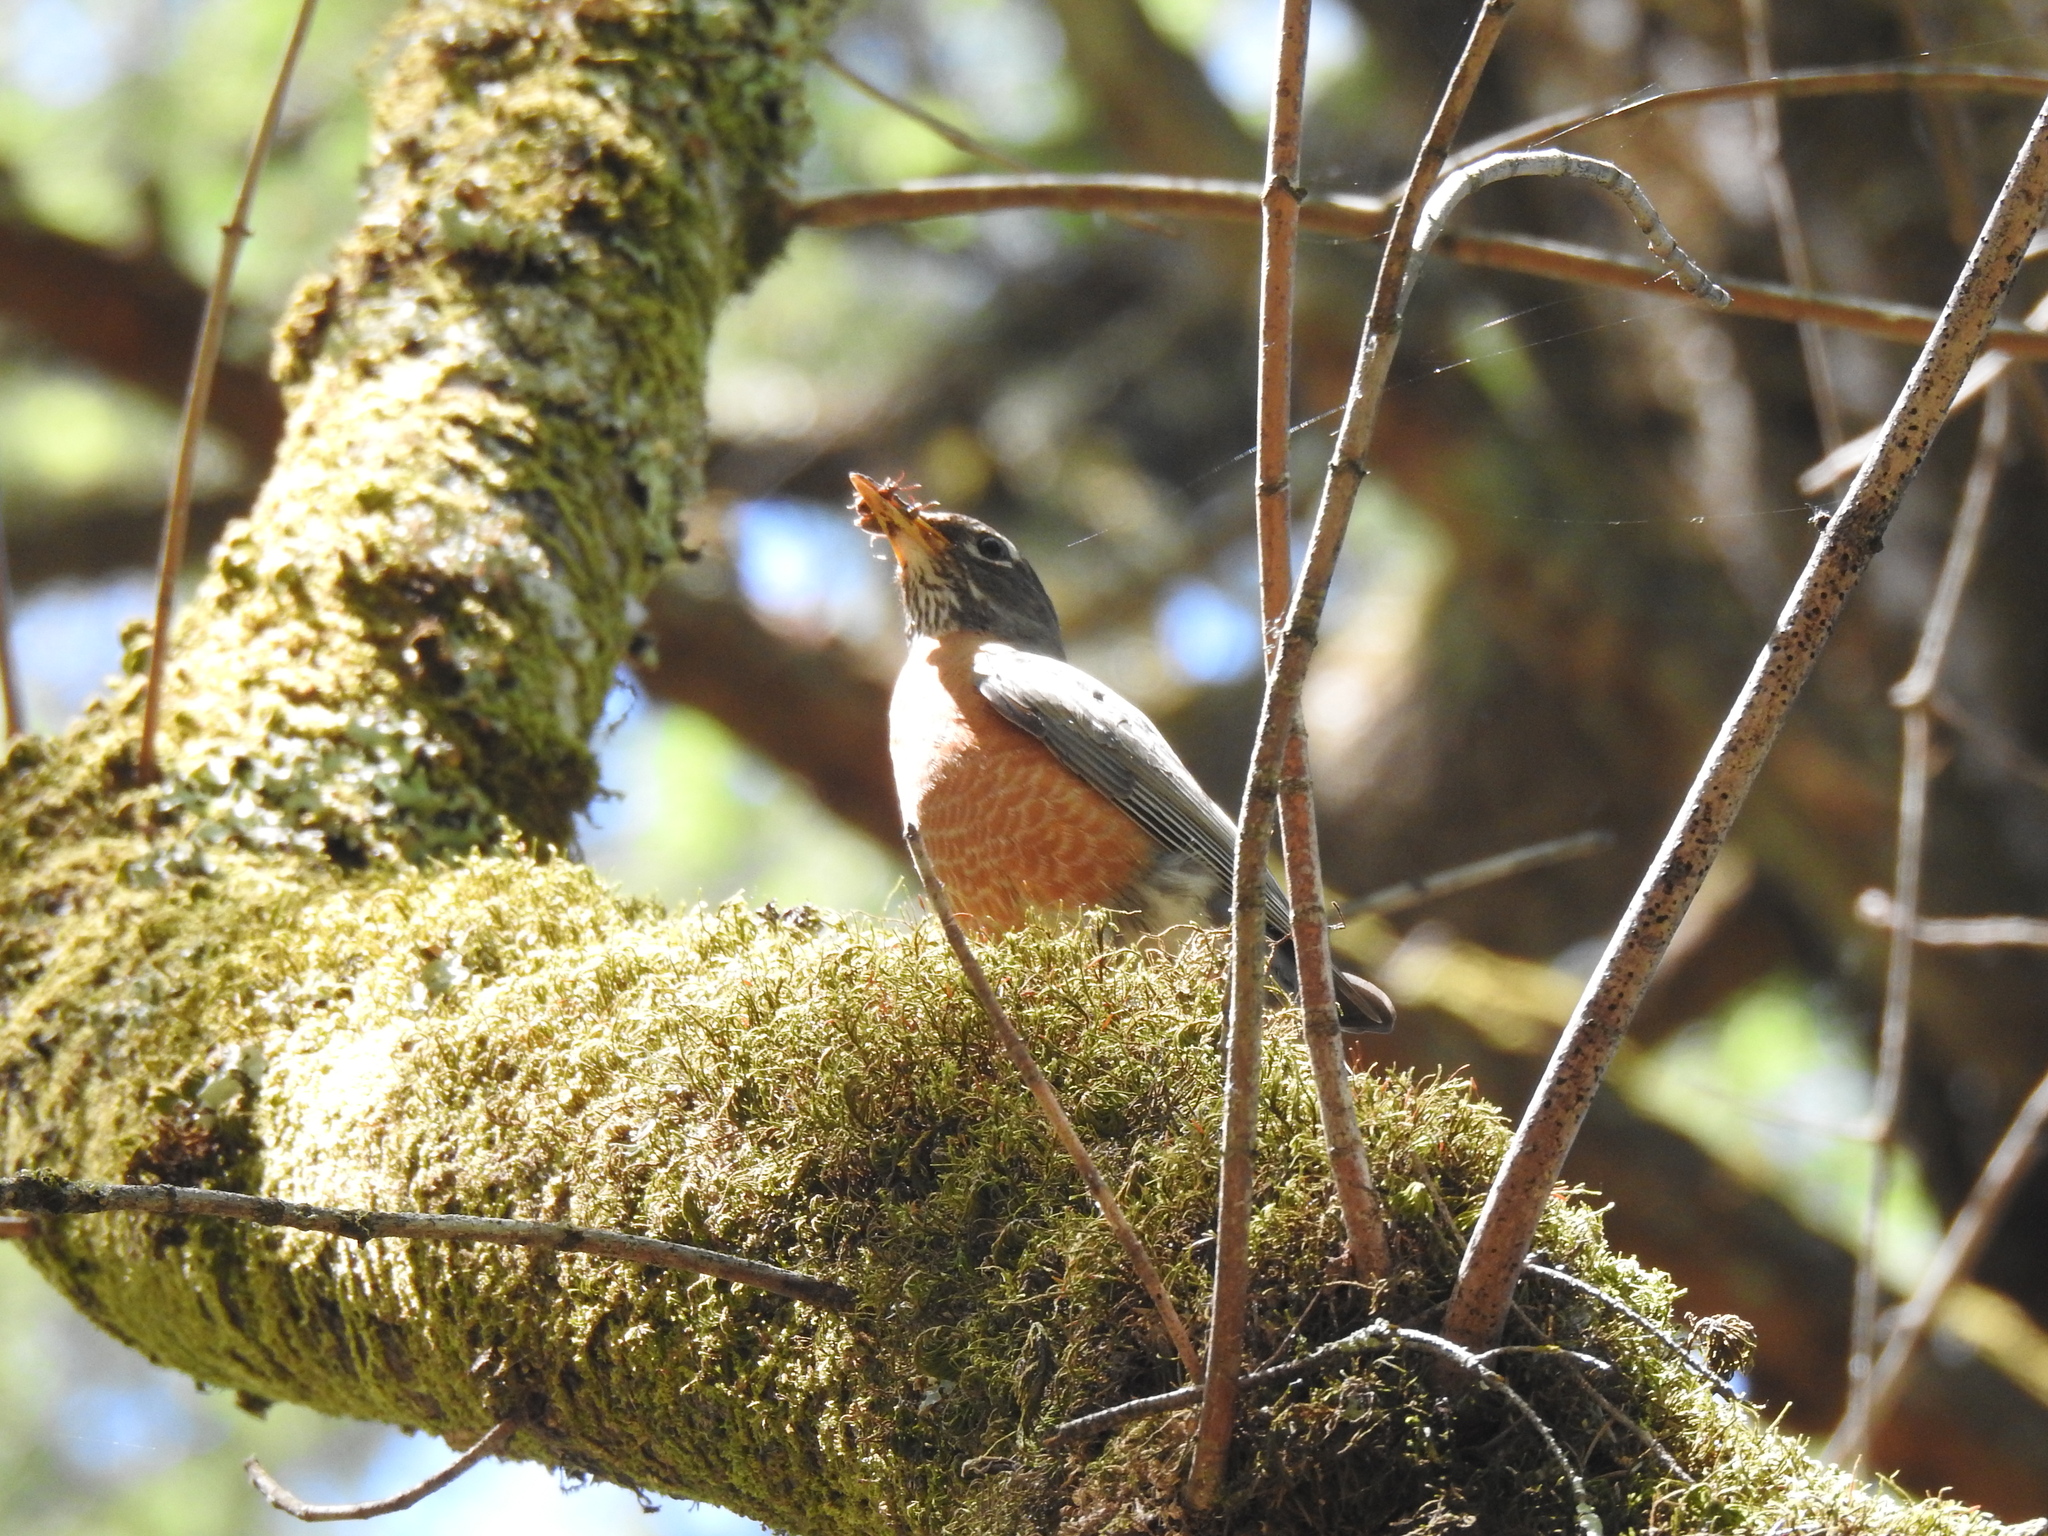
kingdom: Animalia
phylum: Chordata
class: Aves
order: Passeriformes
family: Turdidae
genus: Turdus
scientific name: Turdus migratorius
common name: American robin
